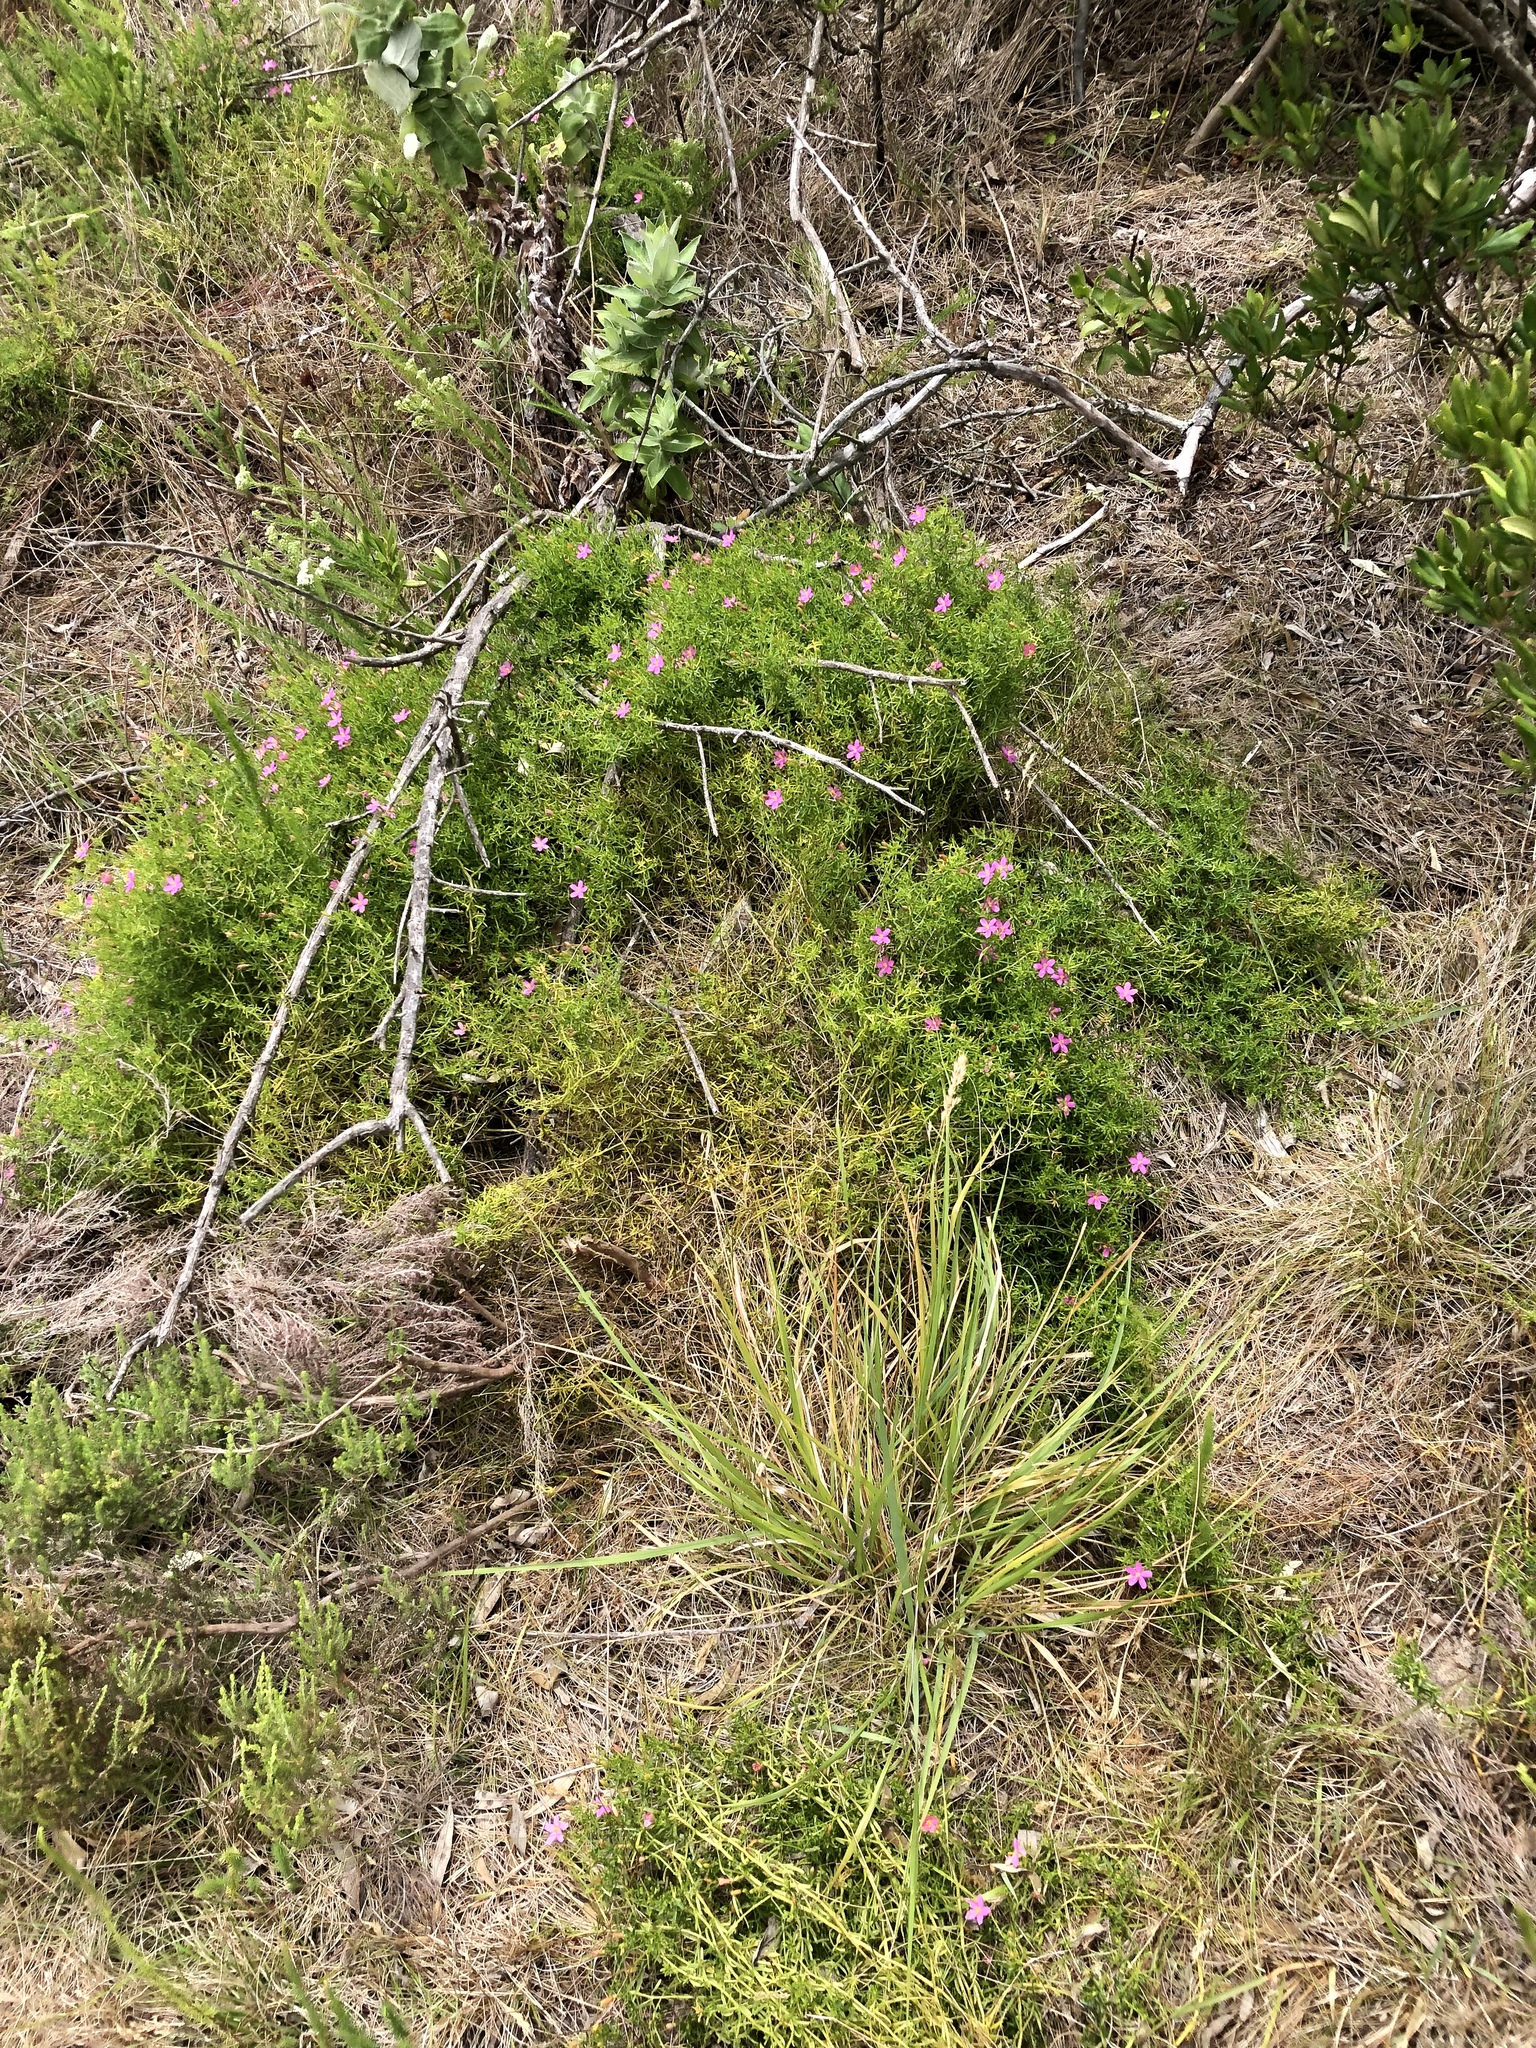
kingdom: Plantae
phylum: Tracheophyta
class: Magnoliopsida
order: Gentianales
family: Gentianaceae
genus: Chironia
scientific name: Chironia baccifera
